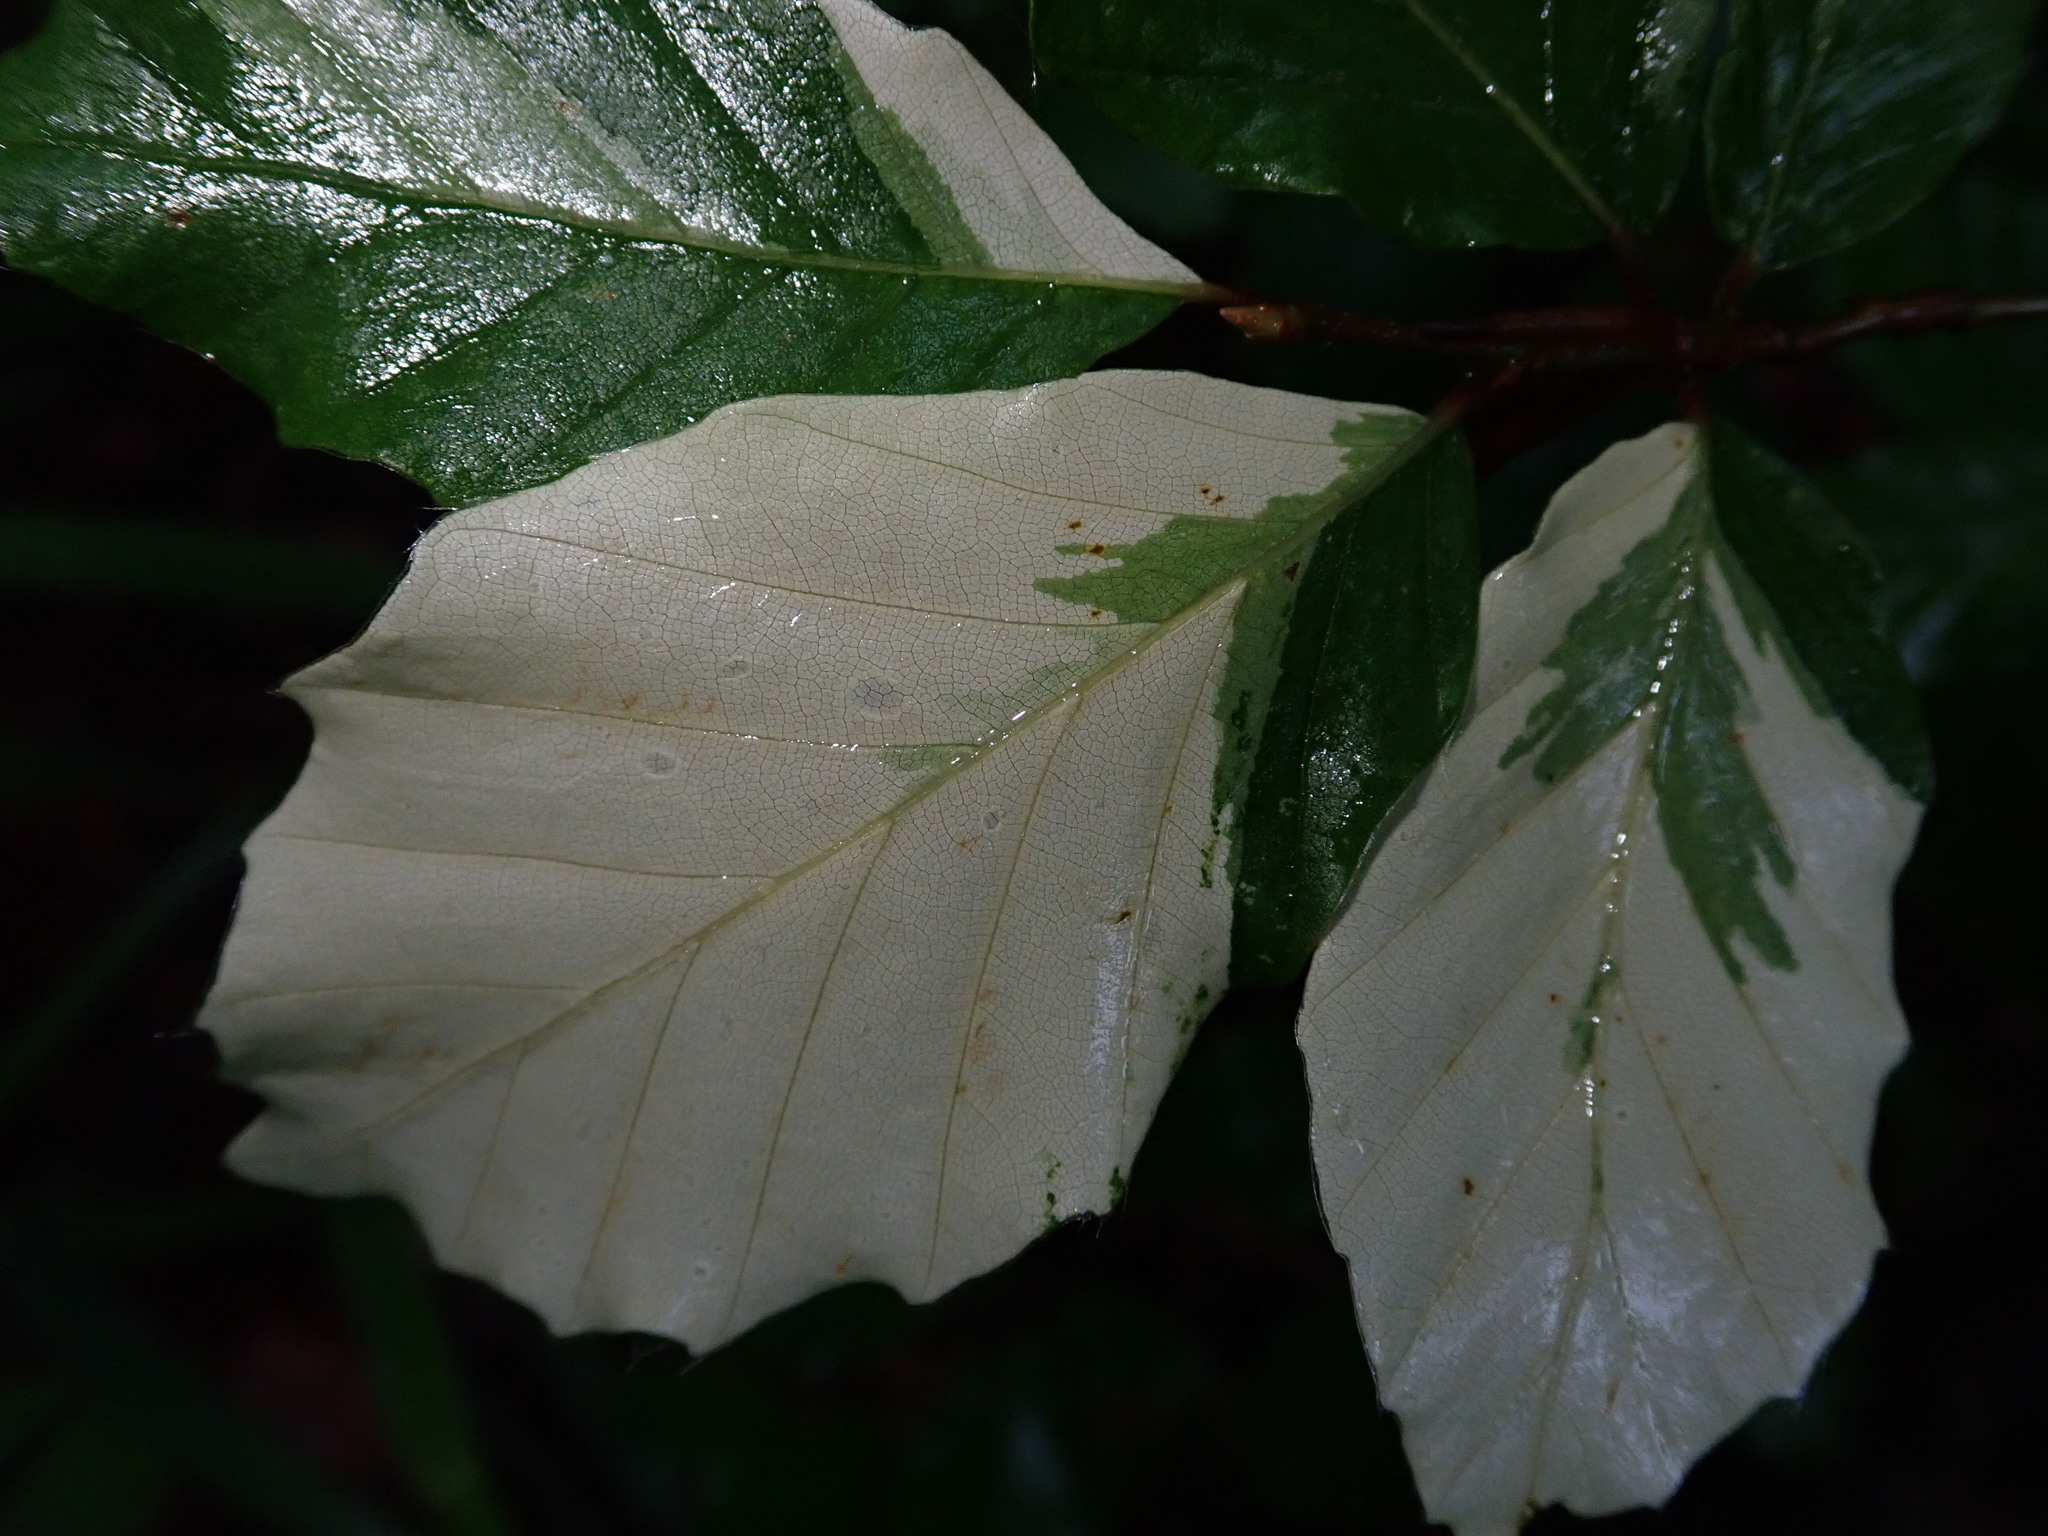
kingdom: Plantae
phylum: Tracheophyta
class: Magnoliopsida
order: Fagales
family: Fagaceae
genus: Fagus
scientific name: Fagus sylvatica
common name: Beech
